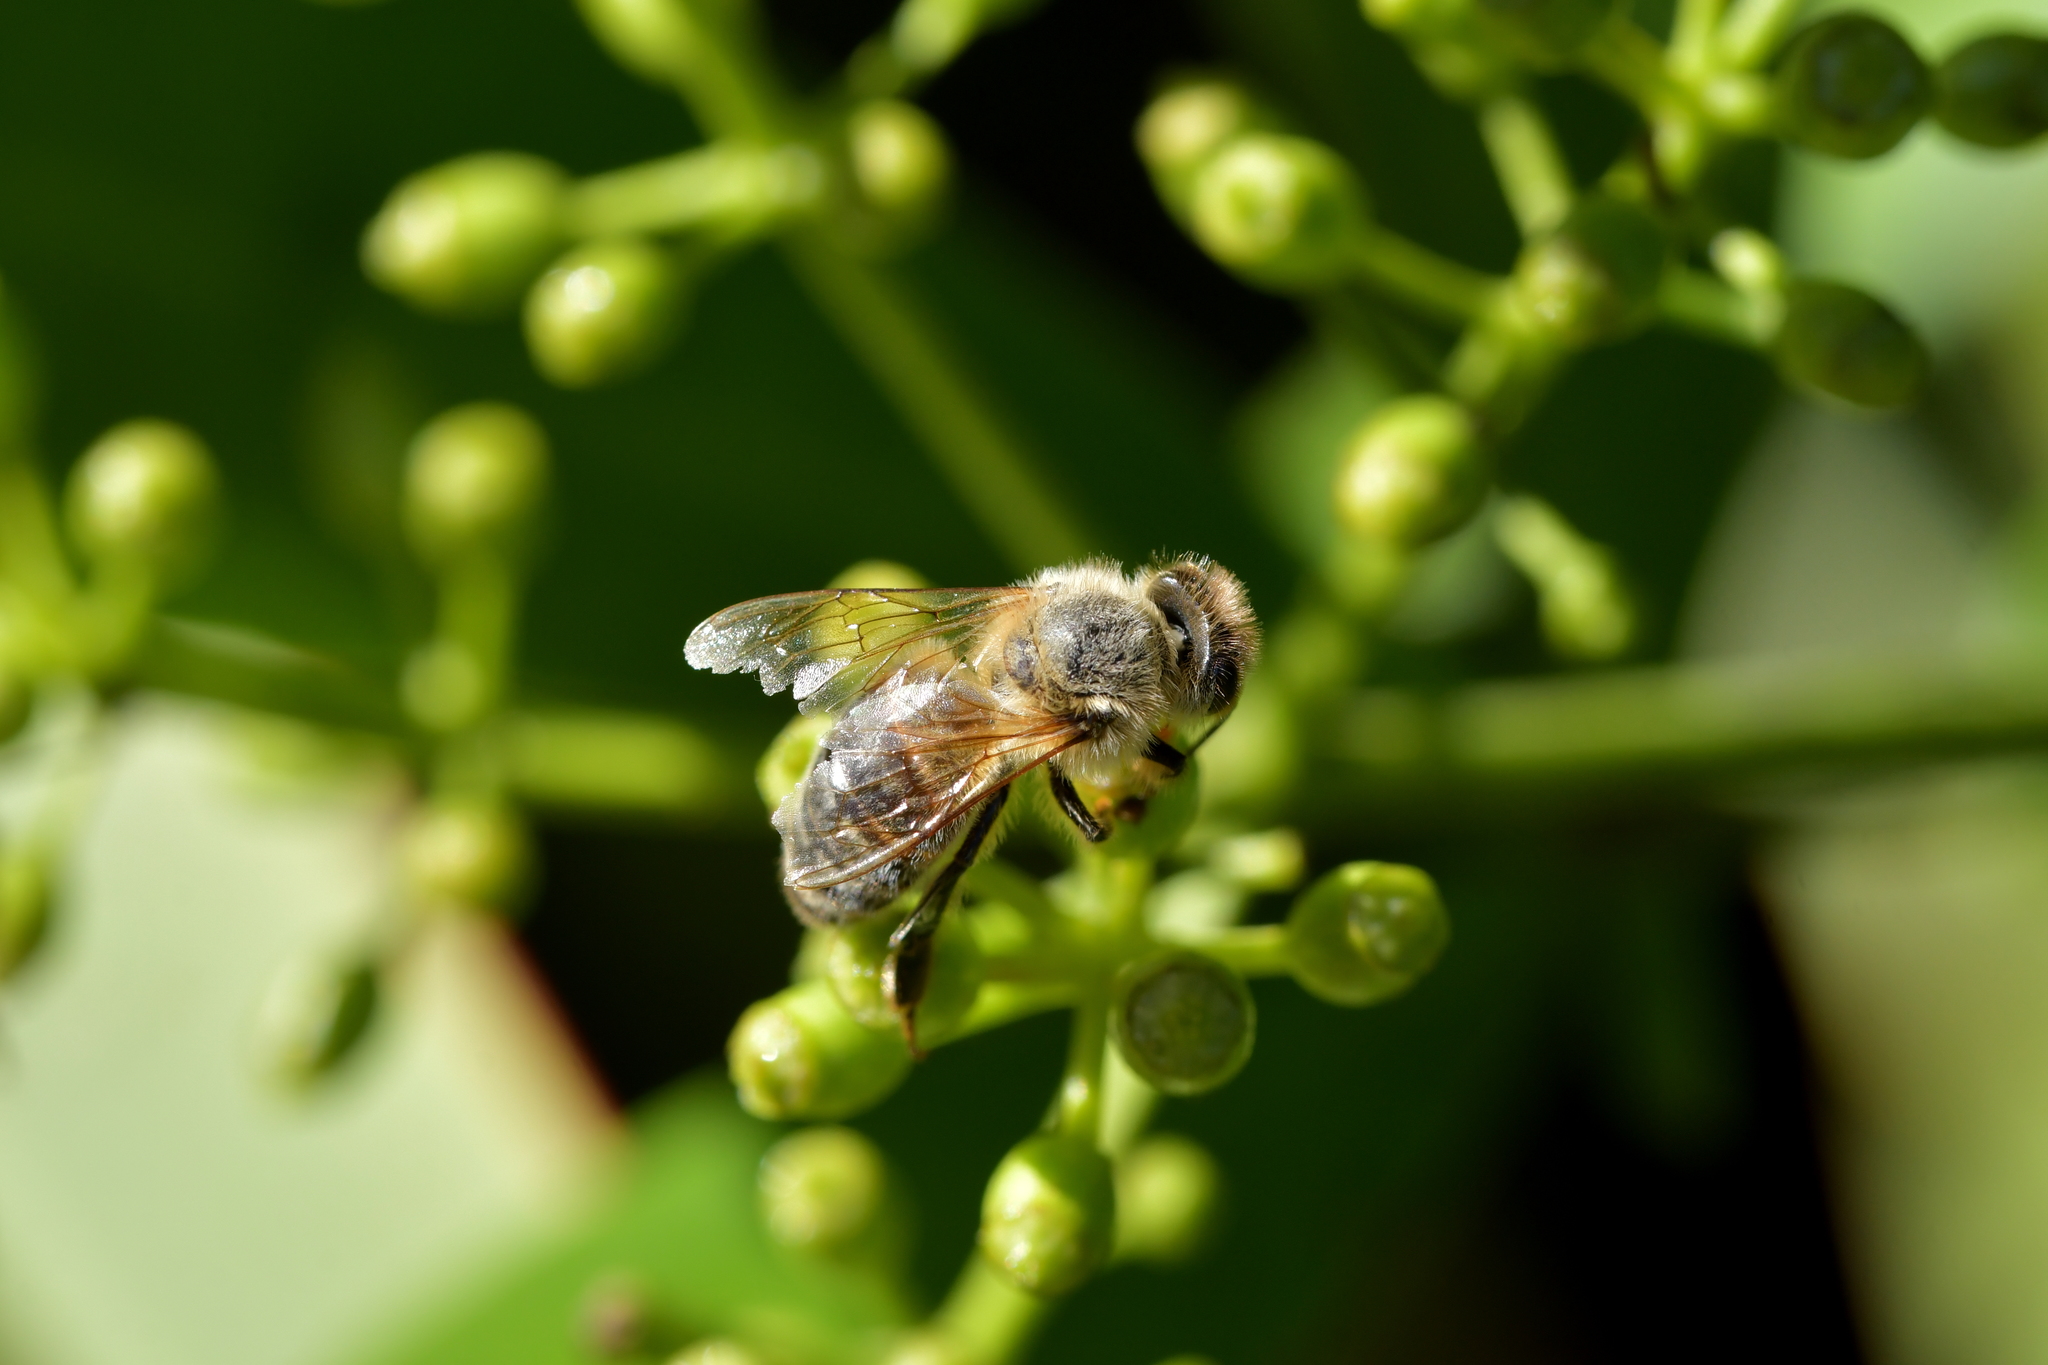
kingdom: Animalia
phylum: Arthropoda
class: Insecta
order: Hymenoptera
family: Apidae
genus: Apis
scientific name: Apis mellifera
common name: Honey bee
